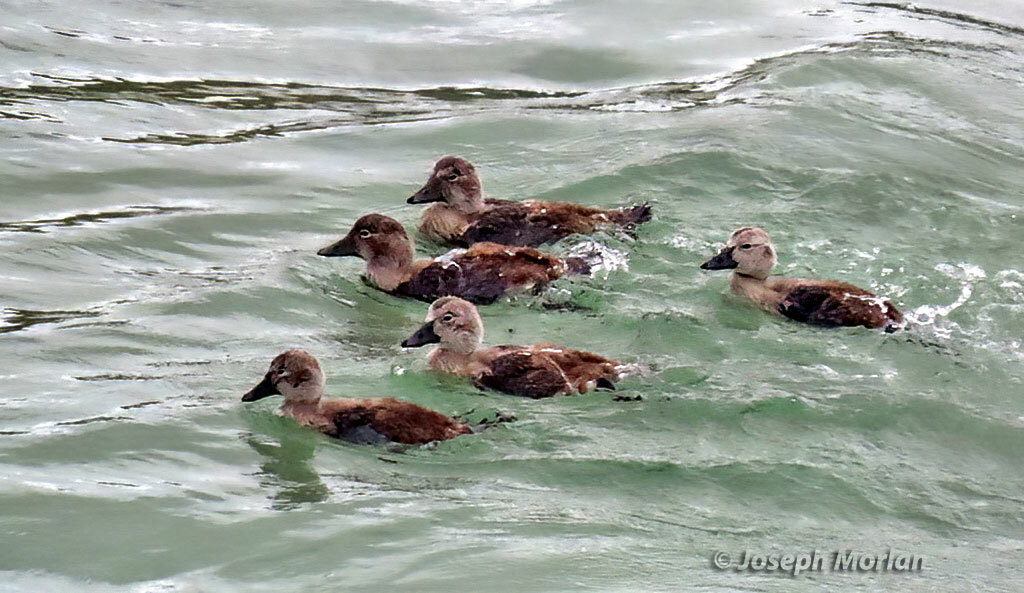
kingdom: Animalia
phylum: Chordata
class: Aves
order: Anseriformes
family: Anatidae
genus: Tachyeres
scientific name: Tachyeres brachypterus
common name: Falkland steamer duck
